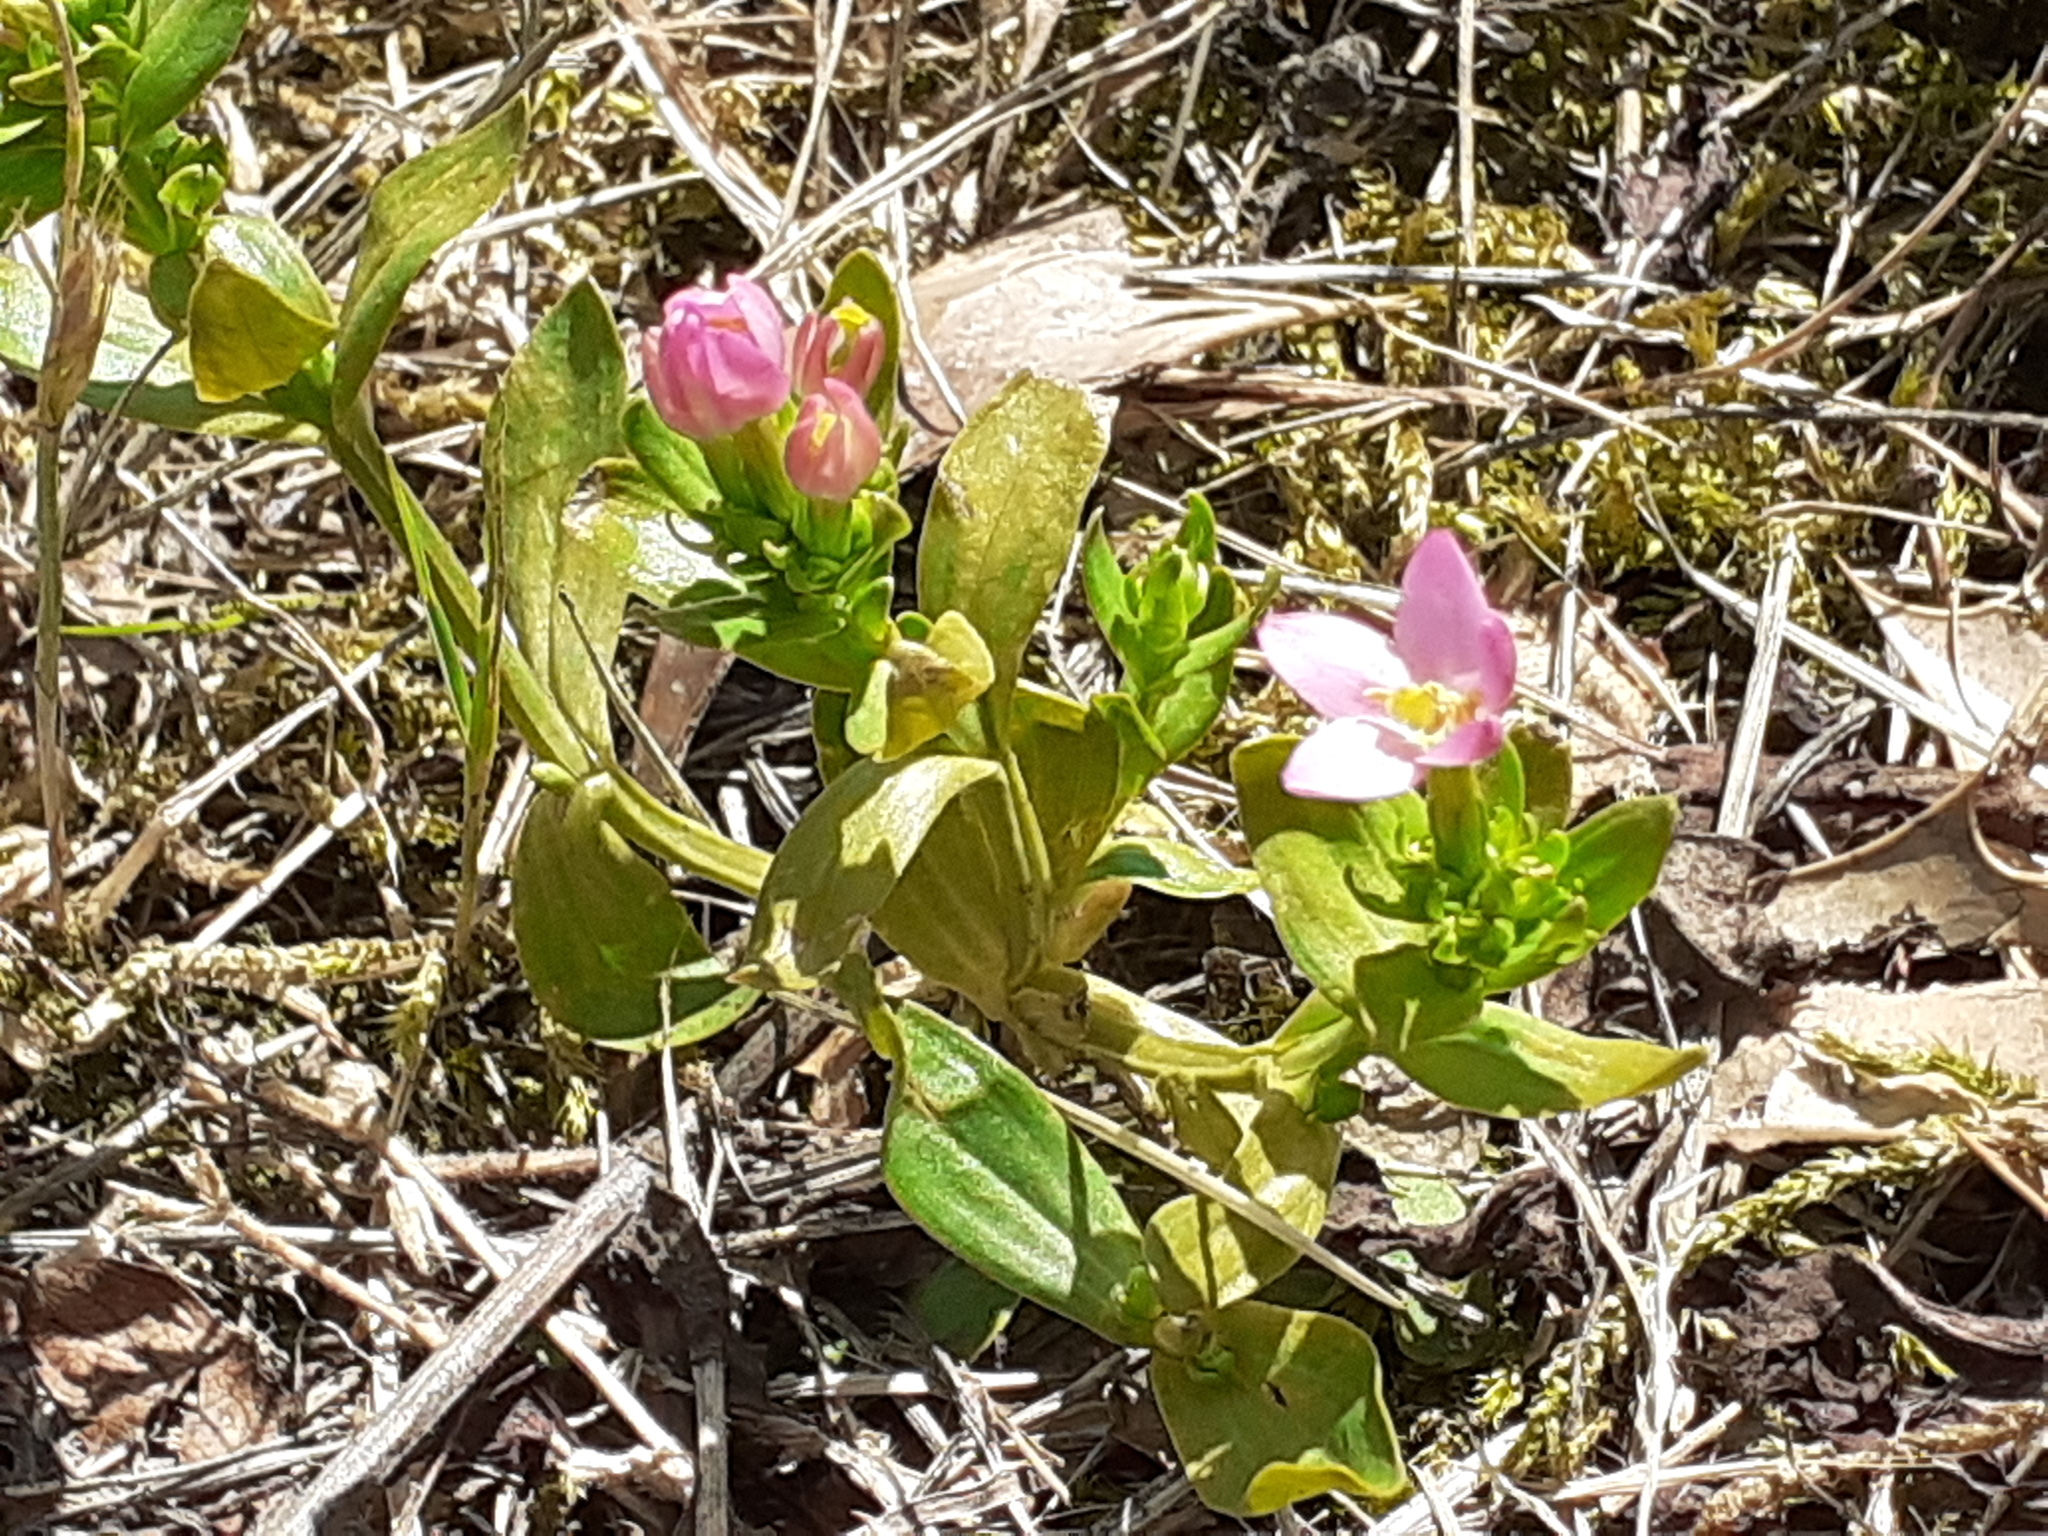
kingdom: Plantae
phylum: Tracheophyta
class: Magnoliopsida
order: Gentianales
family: Gentianaceae
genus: Centaurium
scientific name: Centaurium erythraea
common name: Common centaury
